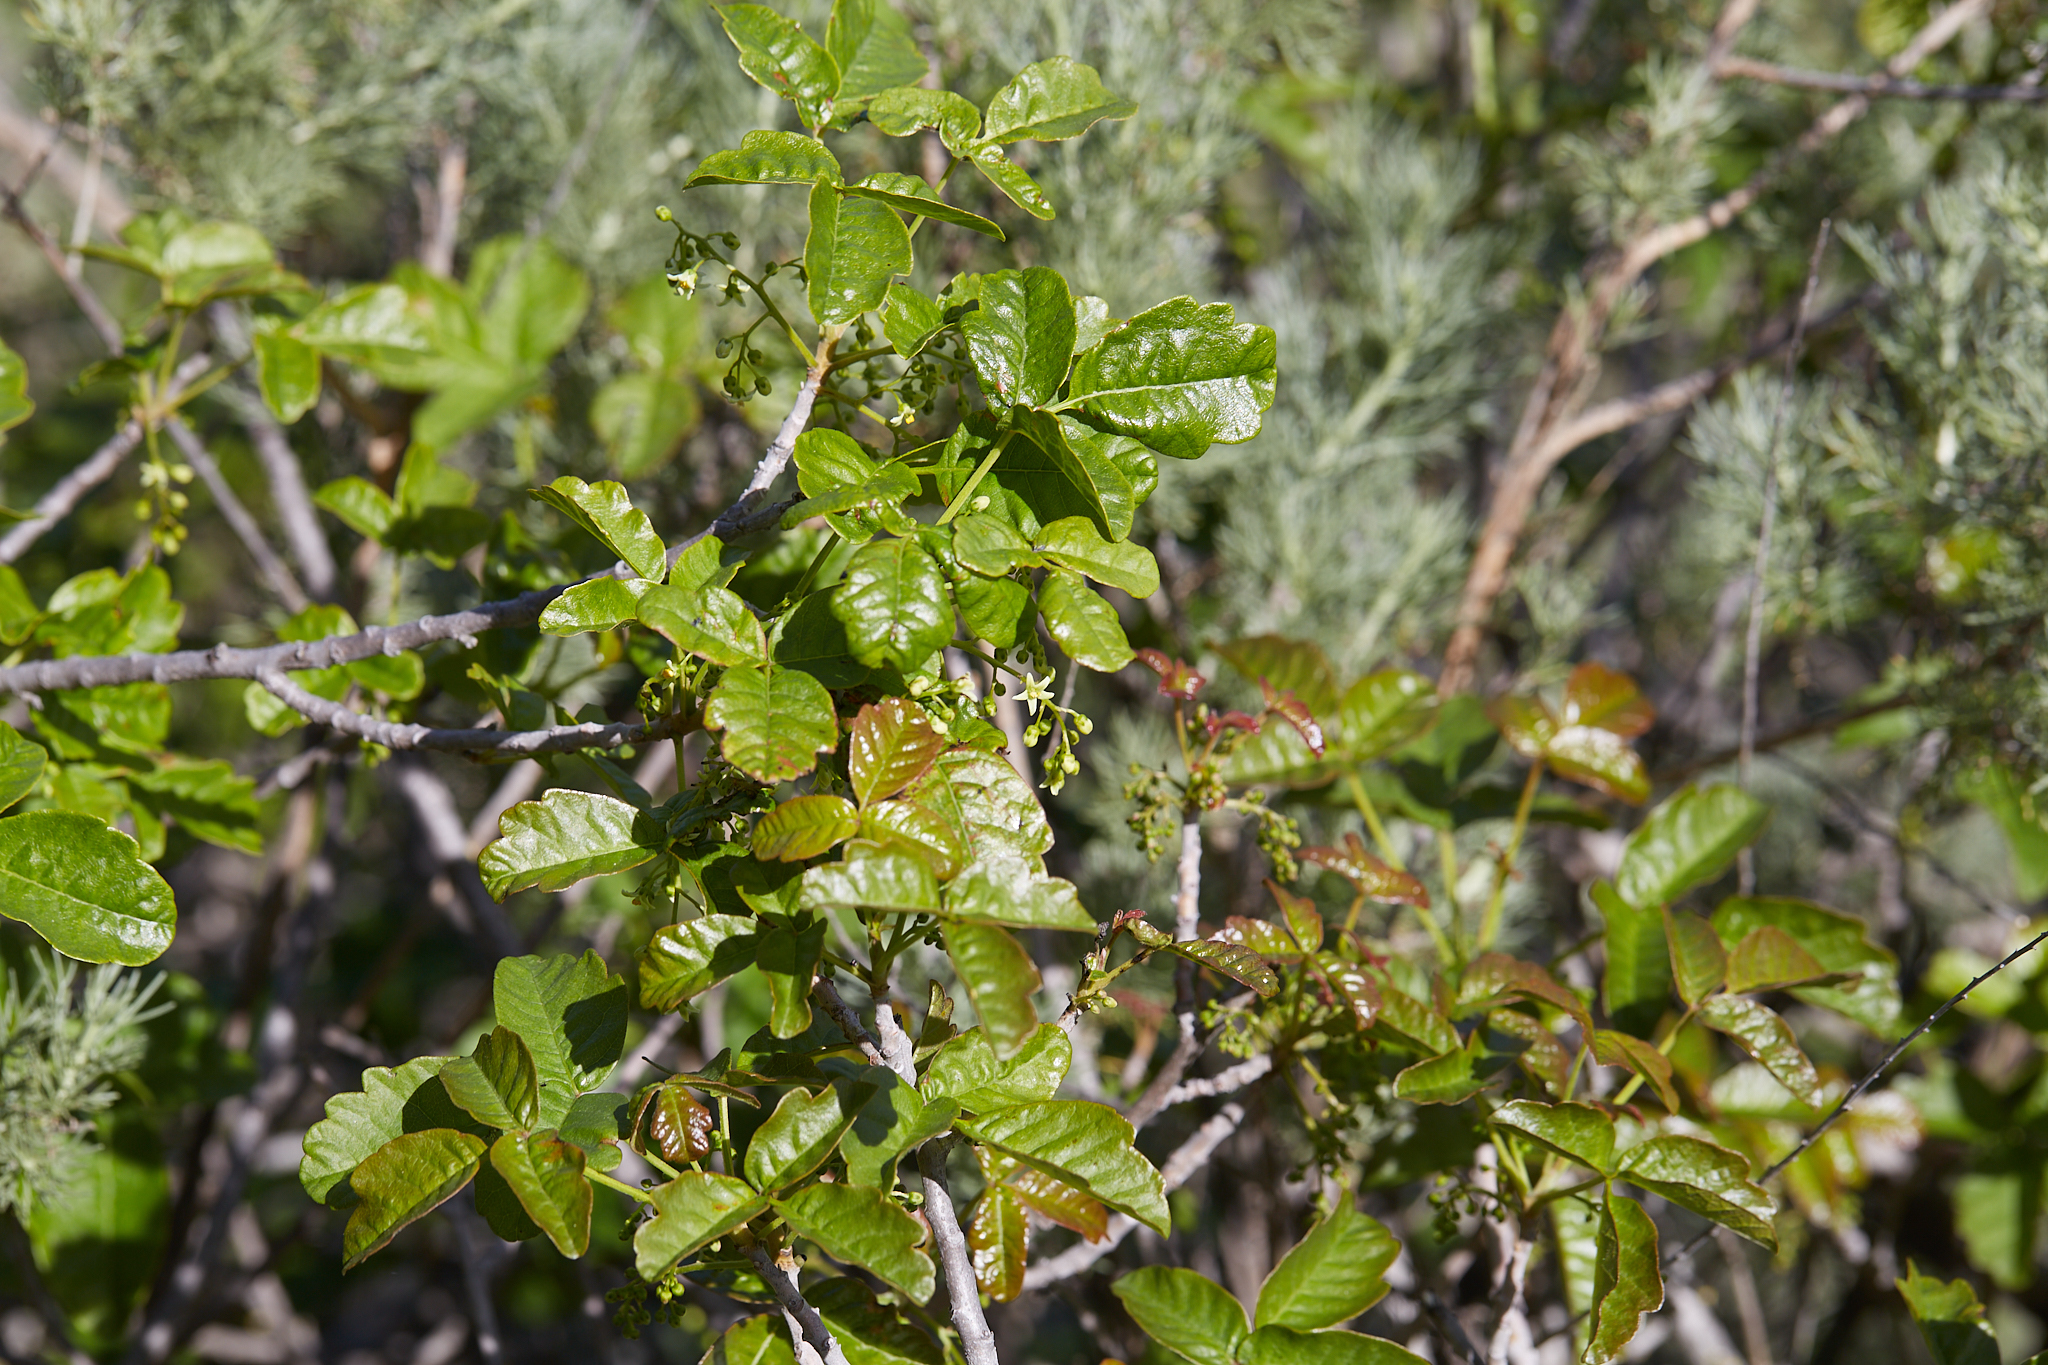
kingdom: Plantae
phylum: Tracheophyta
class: Magnoliopsida
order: Sapindales
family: Anacardiaceae
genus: Toxicodendron
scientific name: Toxicodendron diversilobum
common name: Pacific poison-oak
